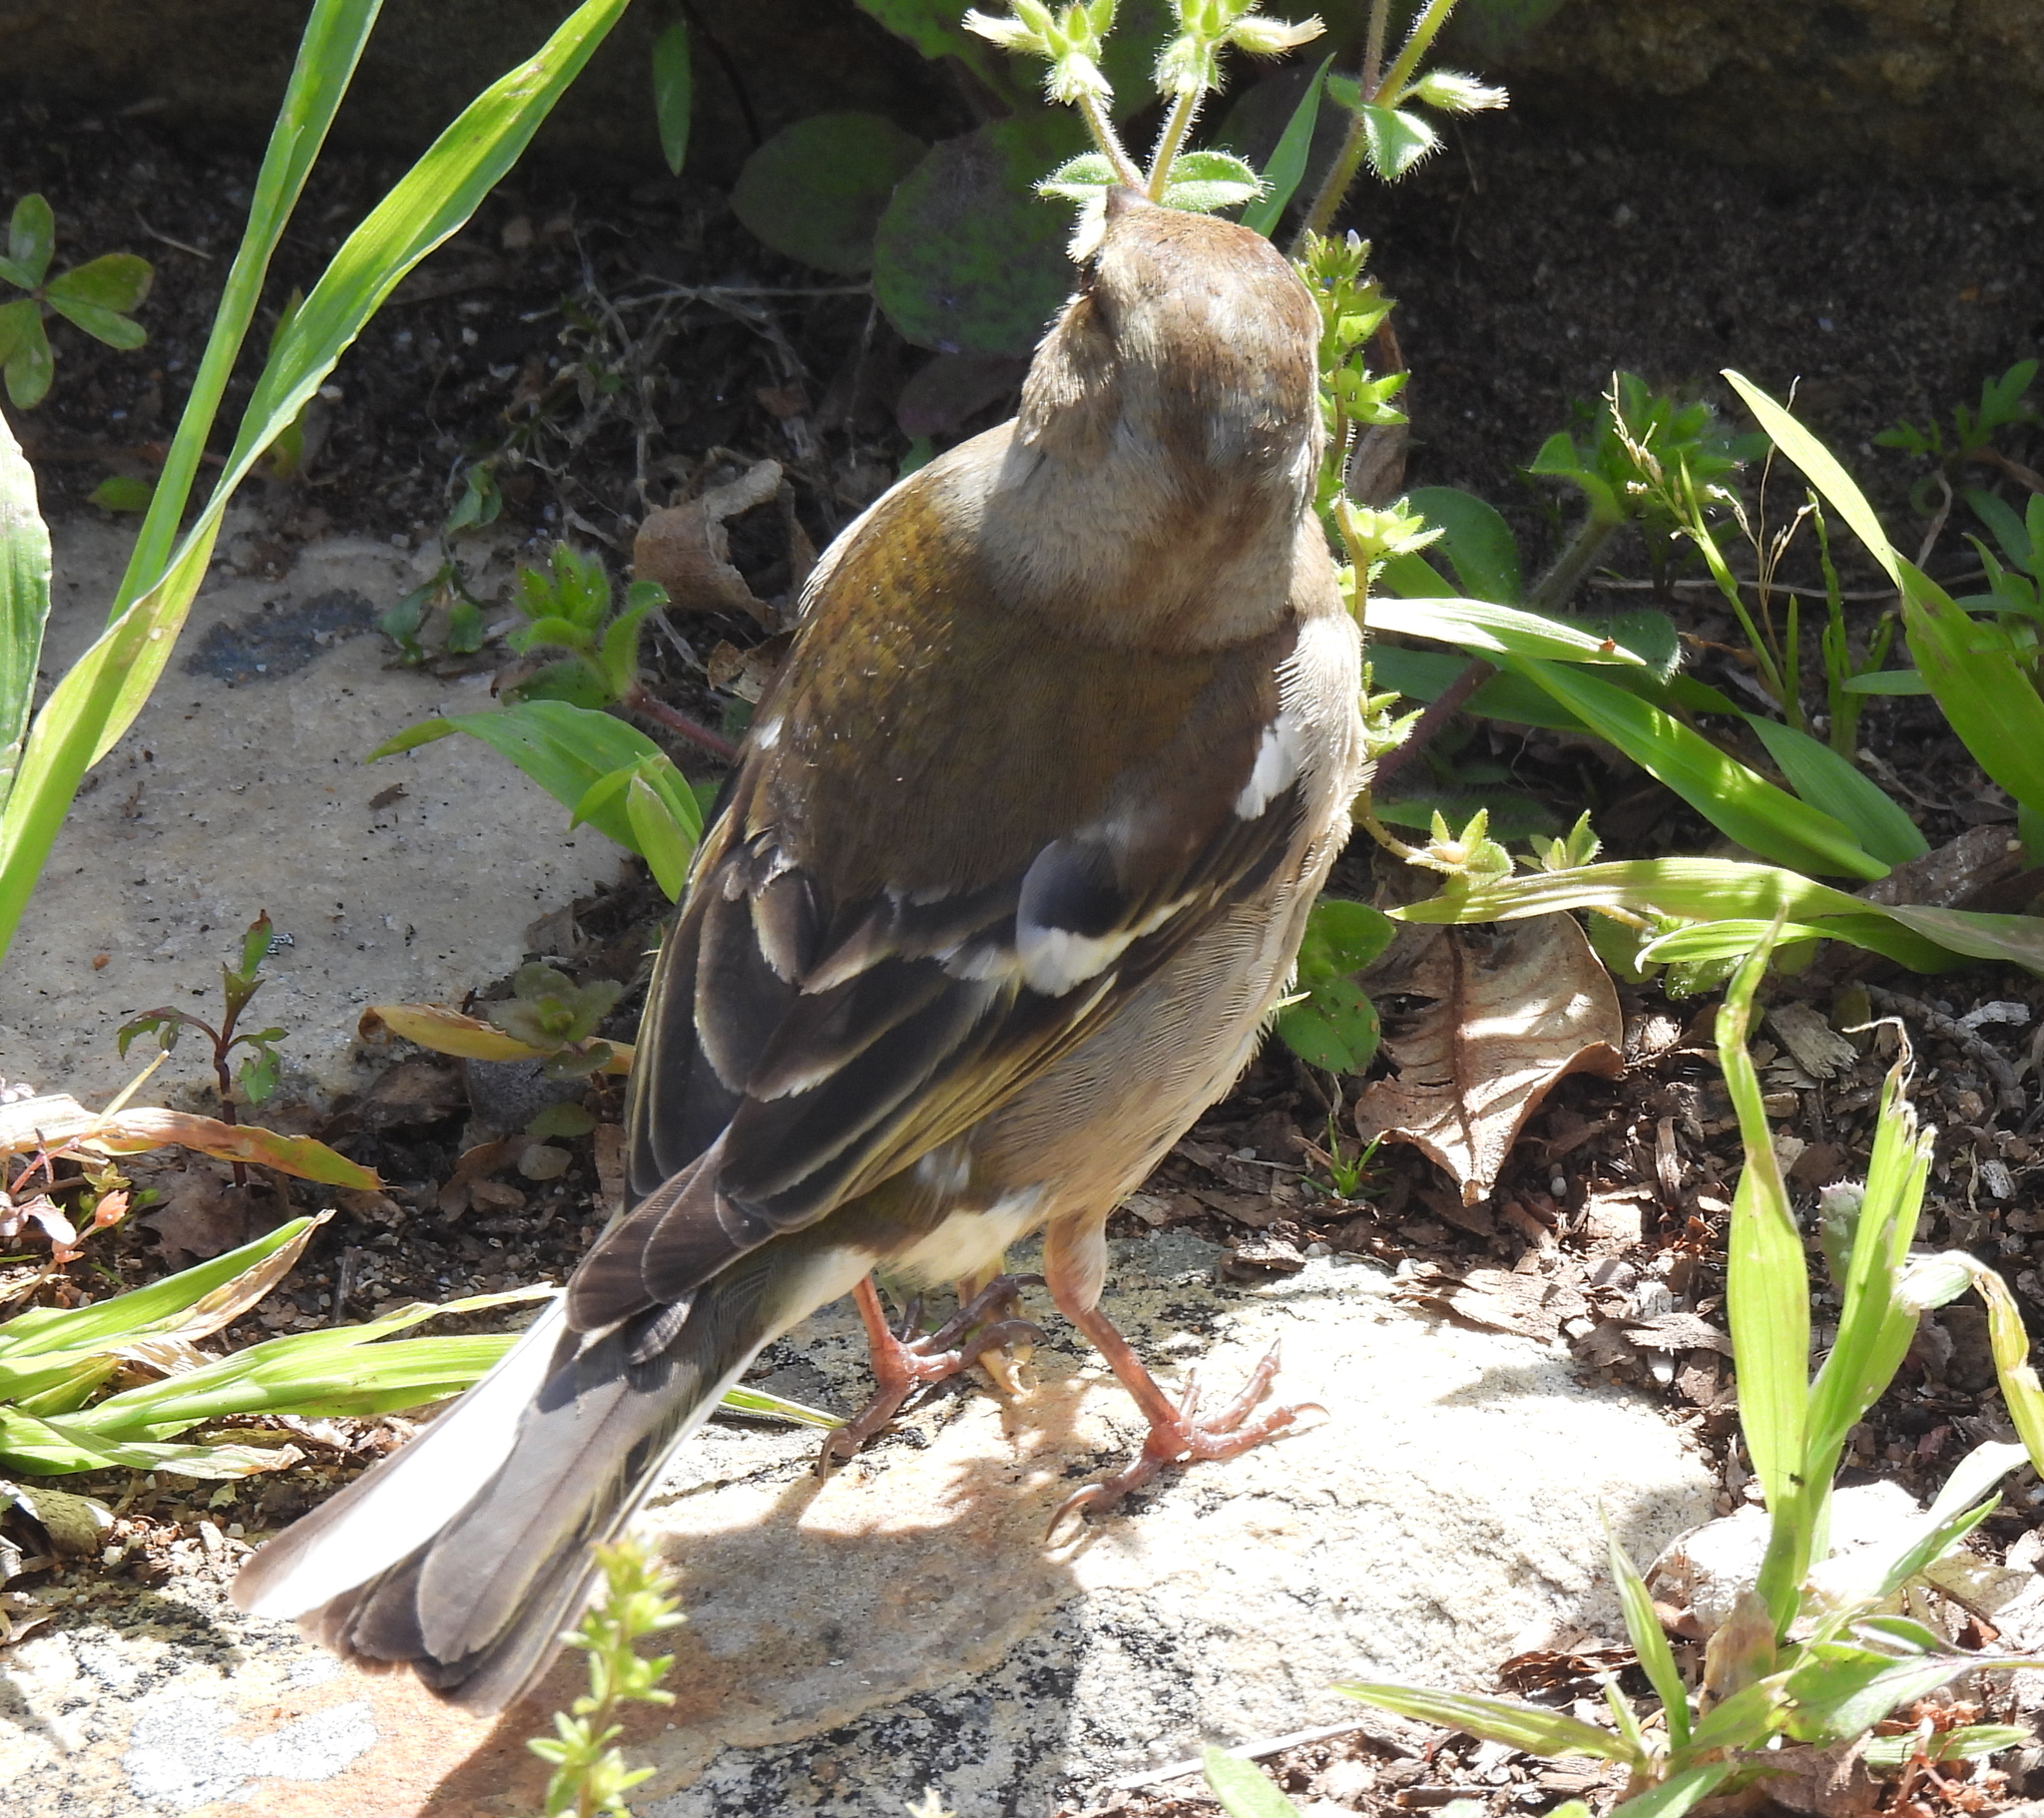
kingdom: Animalia
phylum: Chordata
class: Aves
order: Passeriformes
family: Fringillidae
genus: Fringilla
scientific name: Fringilla coelebs
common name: Common chaffinch
